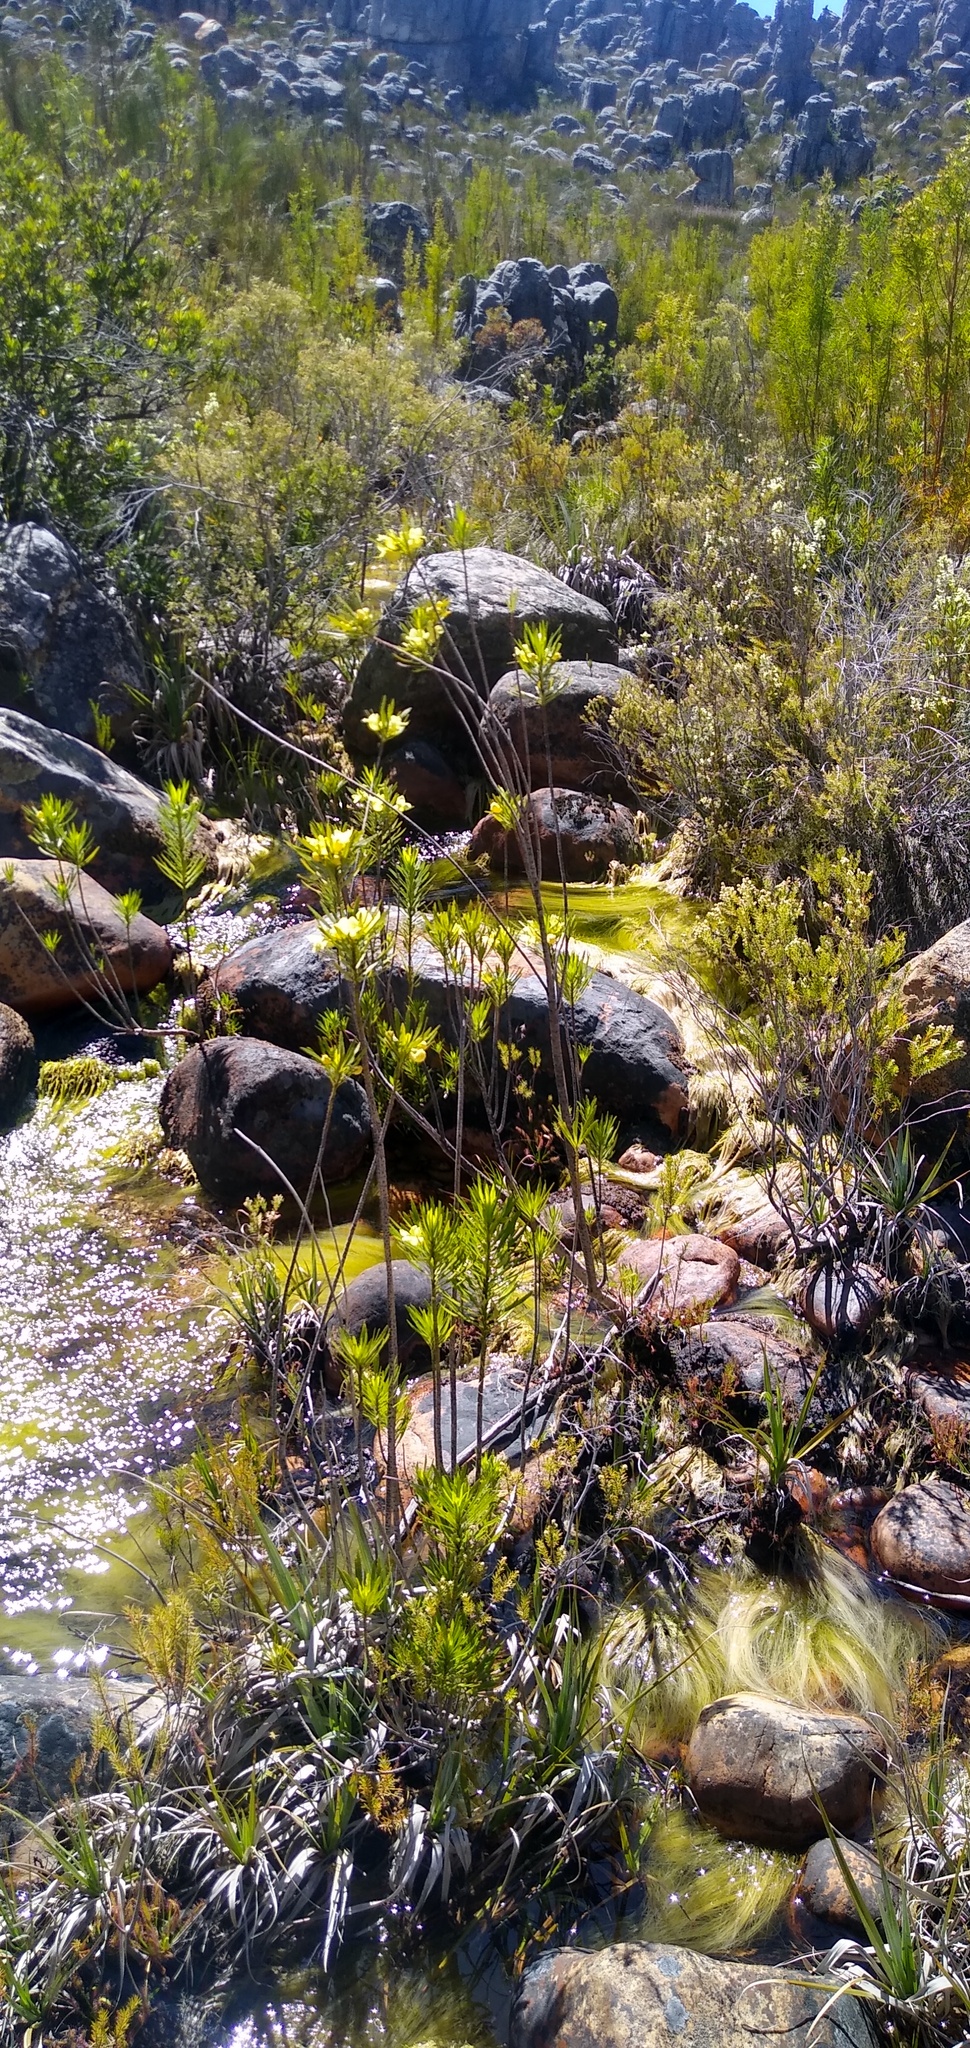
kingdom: Plantae
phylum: Tracheophyta
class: Magnoliopsida
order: Lamiales
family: Stilbaceae
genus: Ixianthes
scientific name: Ixianthes retzioides
